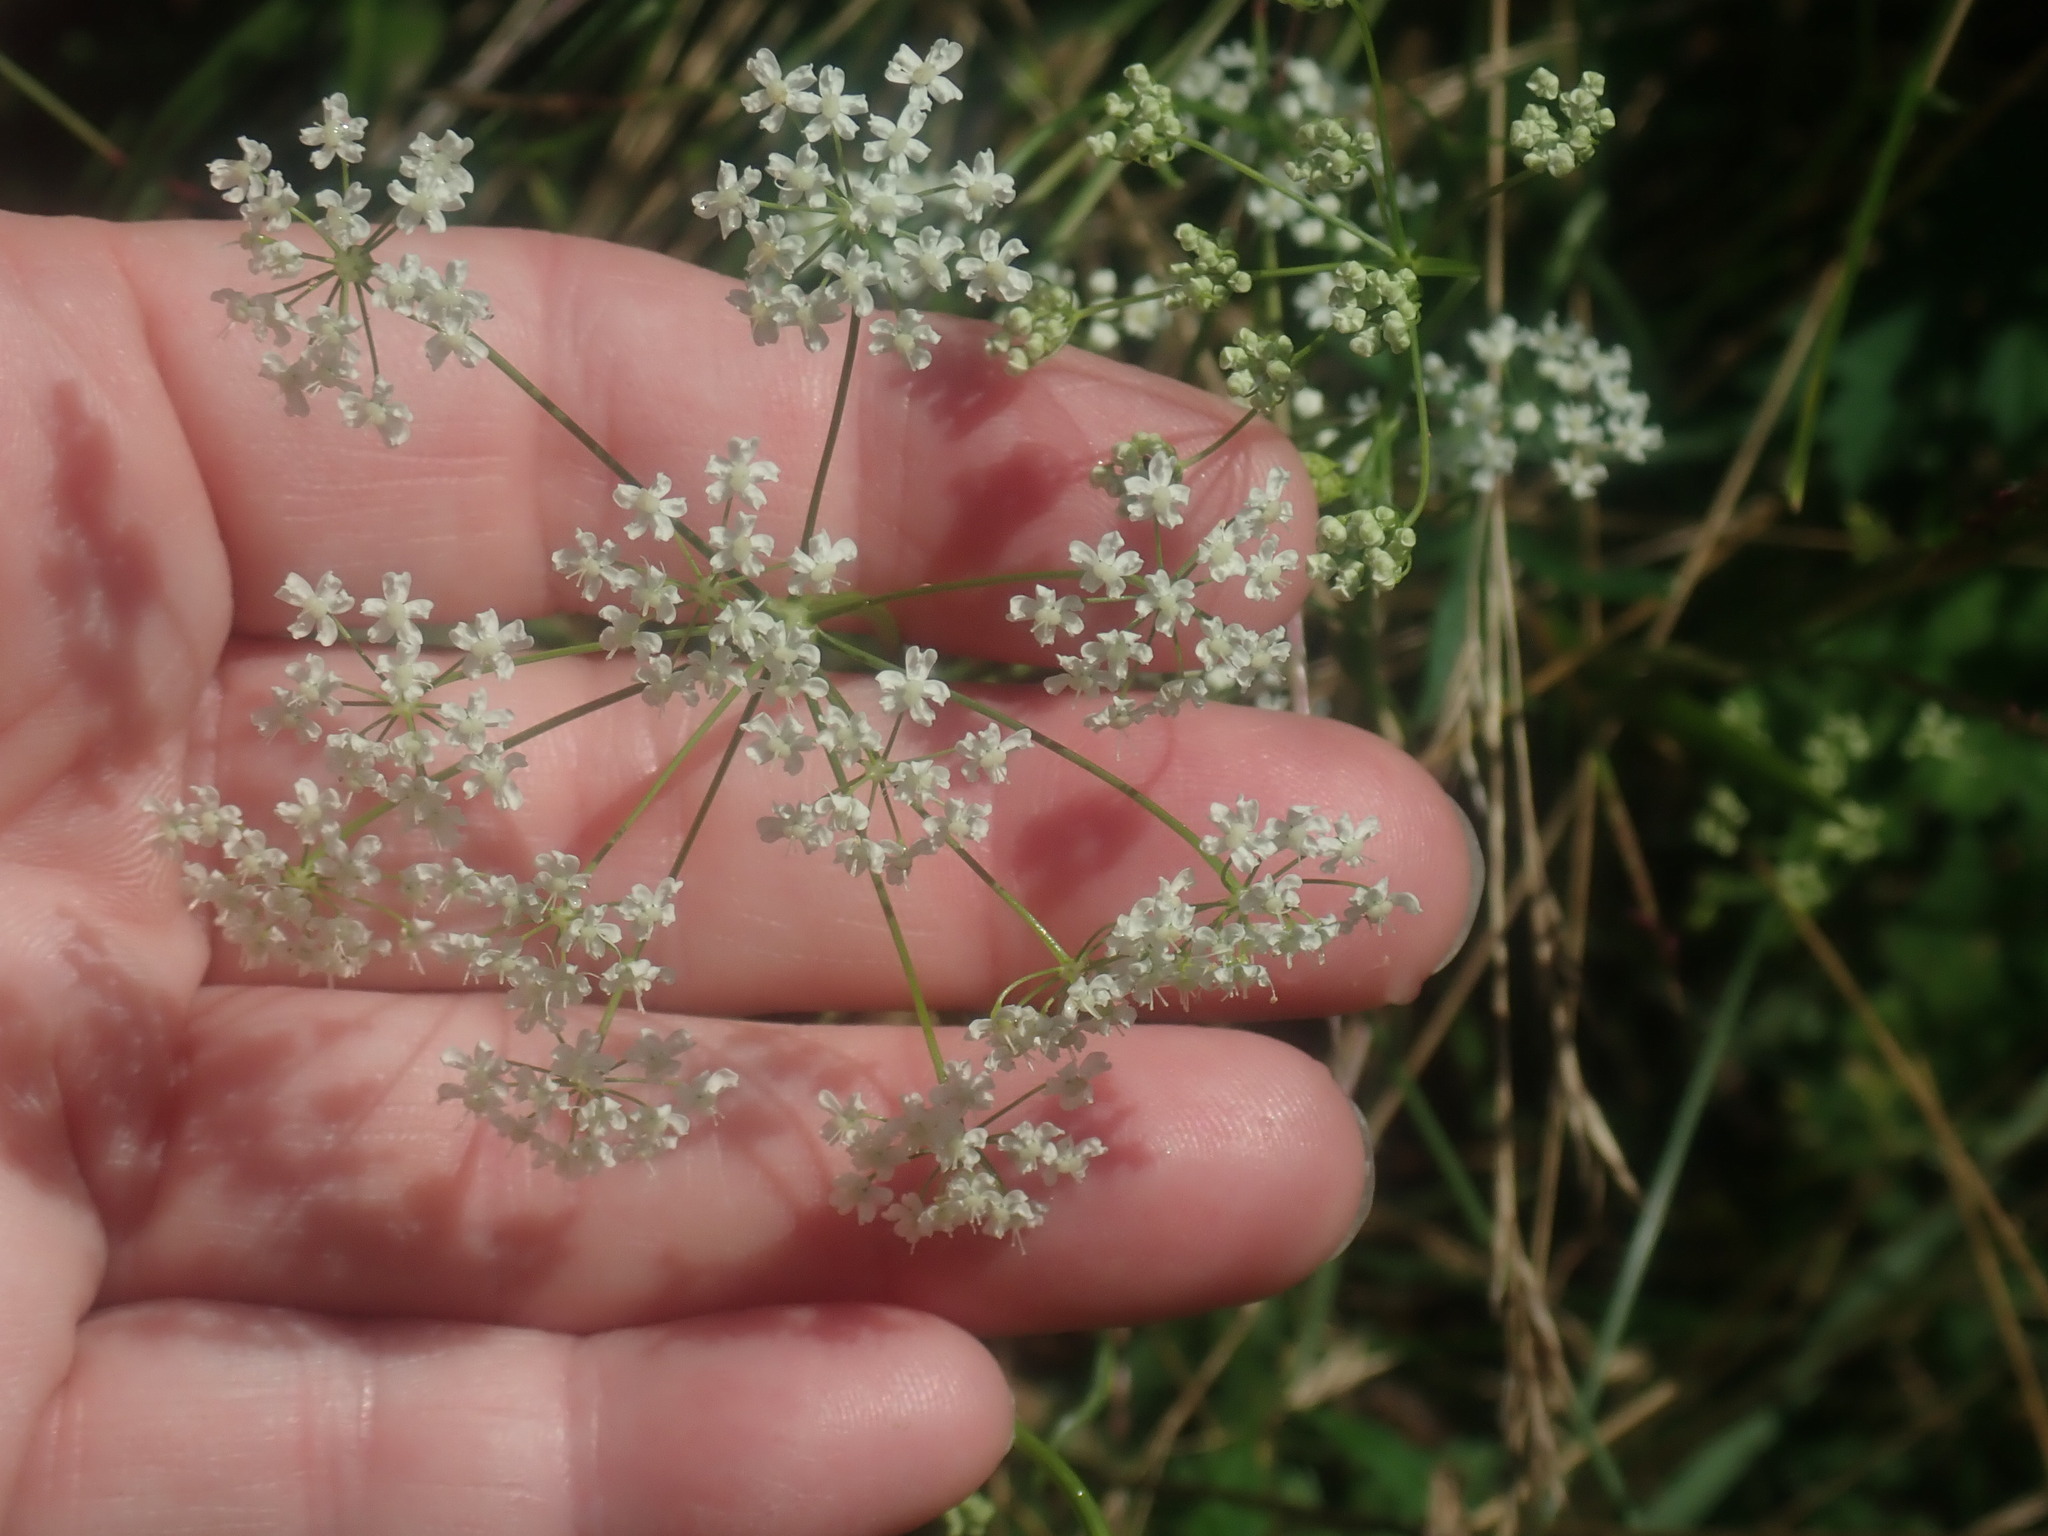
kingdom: Plantae
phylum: Tracheophyta
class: Magnoliopsida
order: Apiales
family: Apiaceae
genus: Cicuta
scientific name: Cicuta bulbifera
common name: Bulb-bearing water-hemlock
